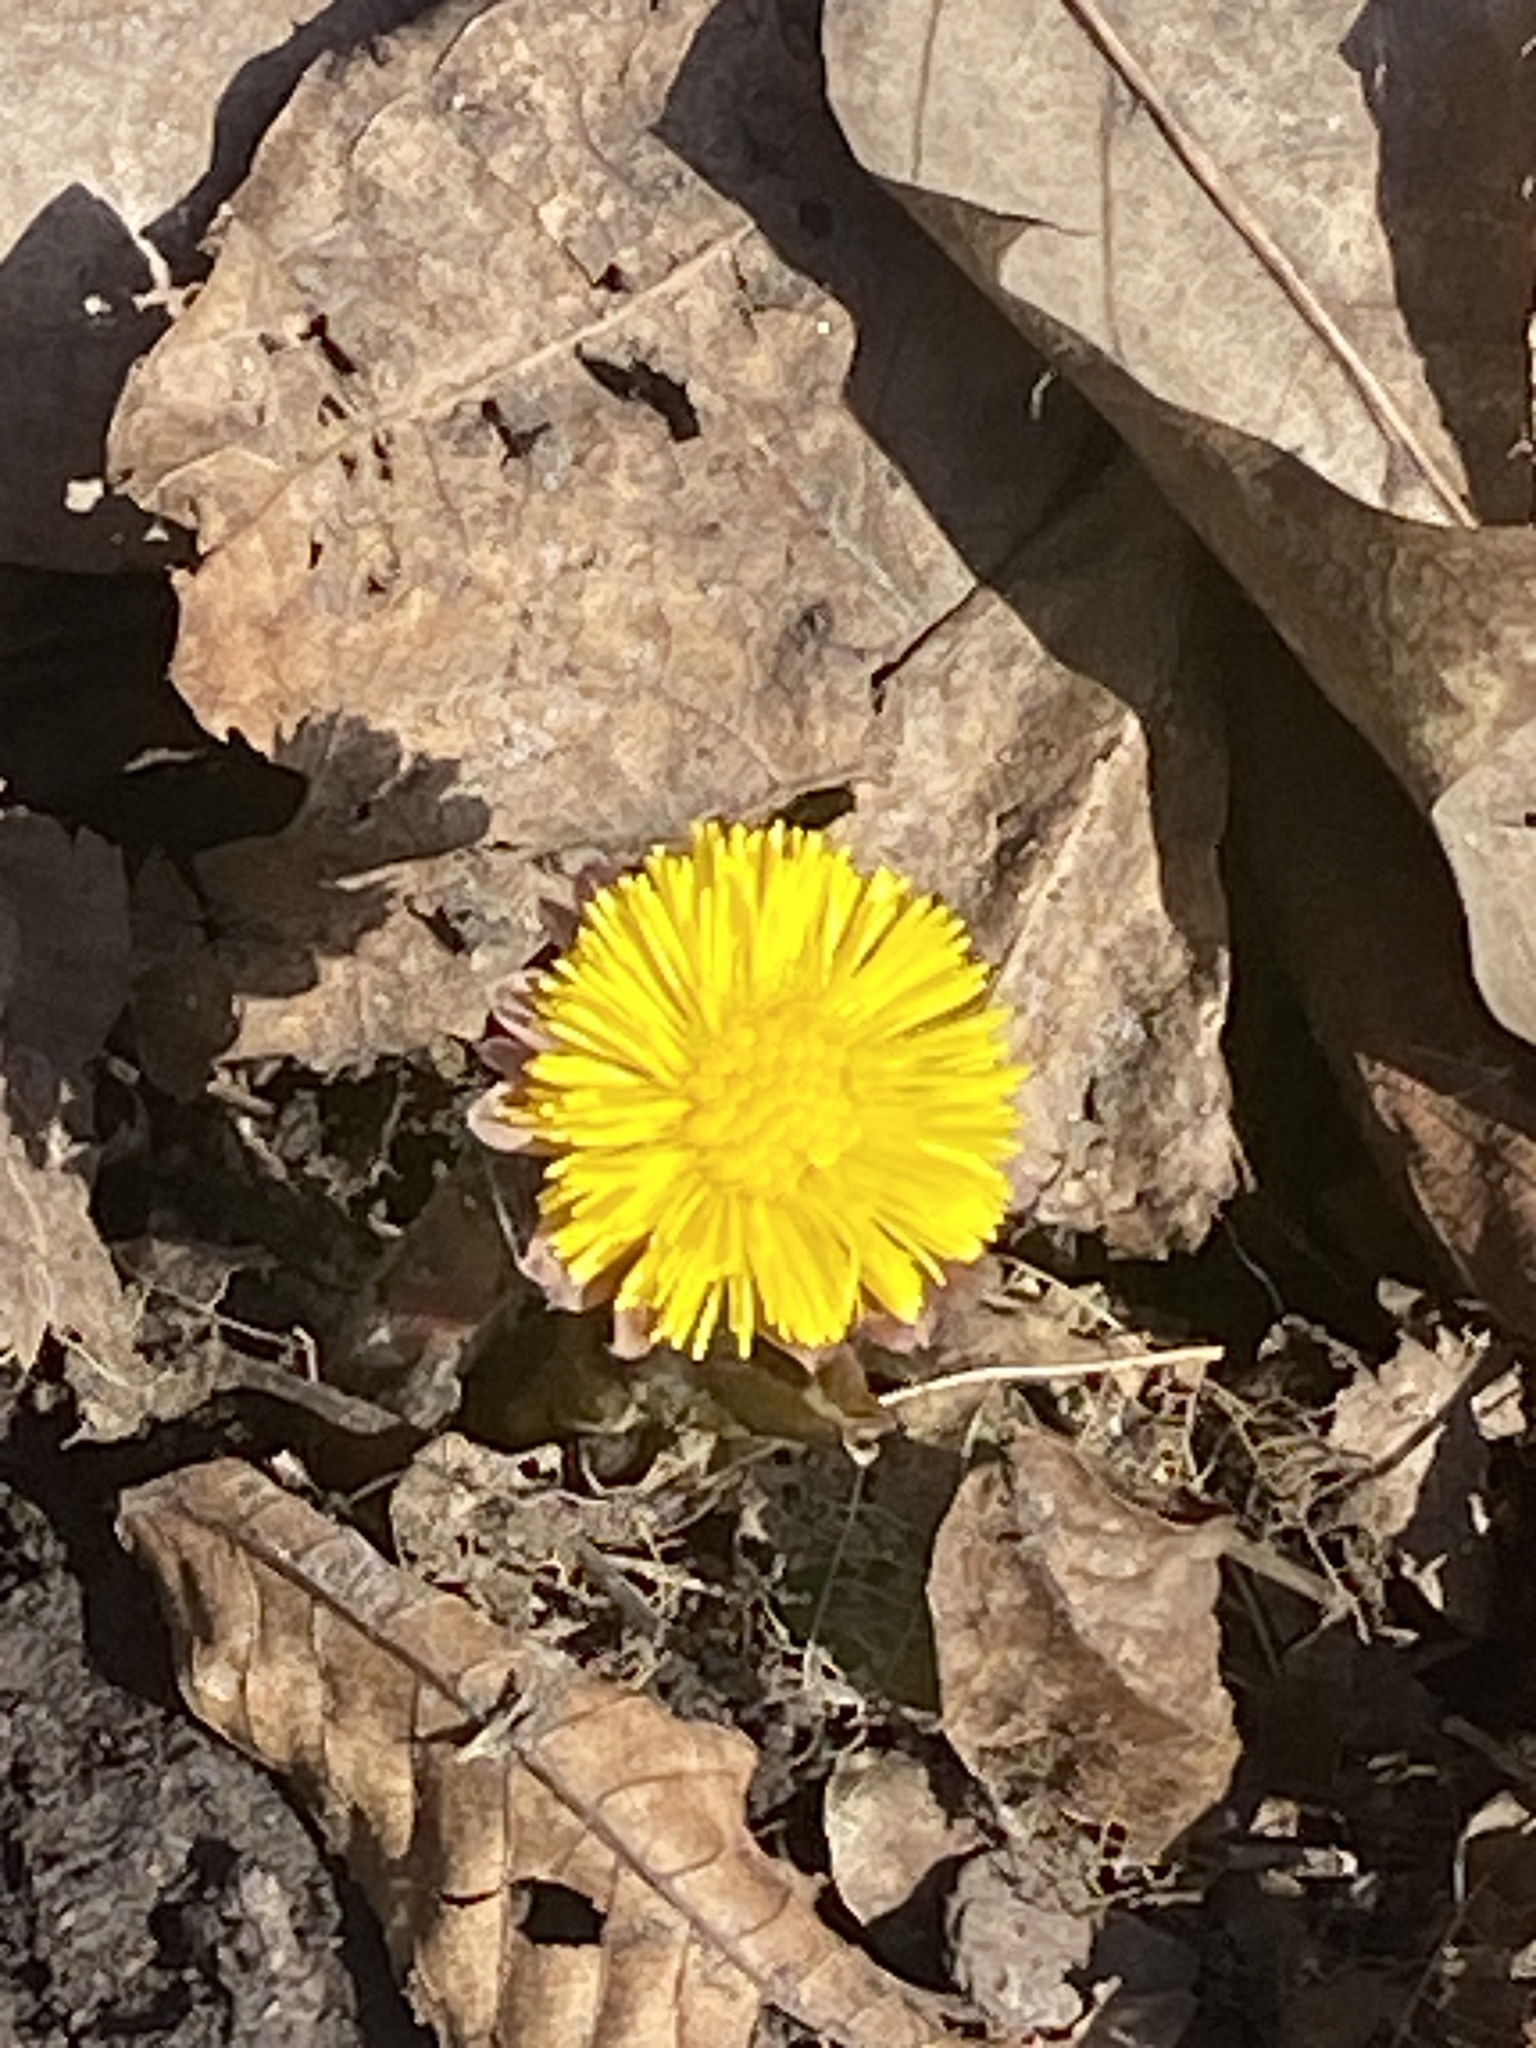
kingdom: Plantae
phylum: Tracheophyta
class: Magnoliopsida
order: Asterales
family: Asteraceae
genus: Tussilago
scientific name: Tussilago farfara
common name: Coltsfoot
